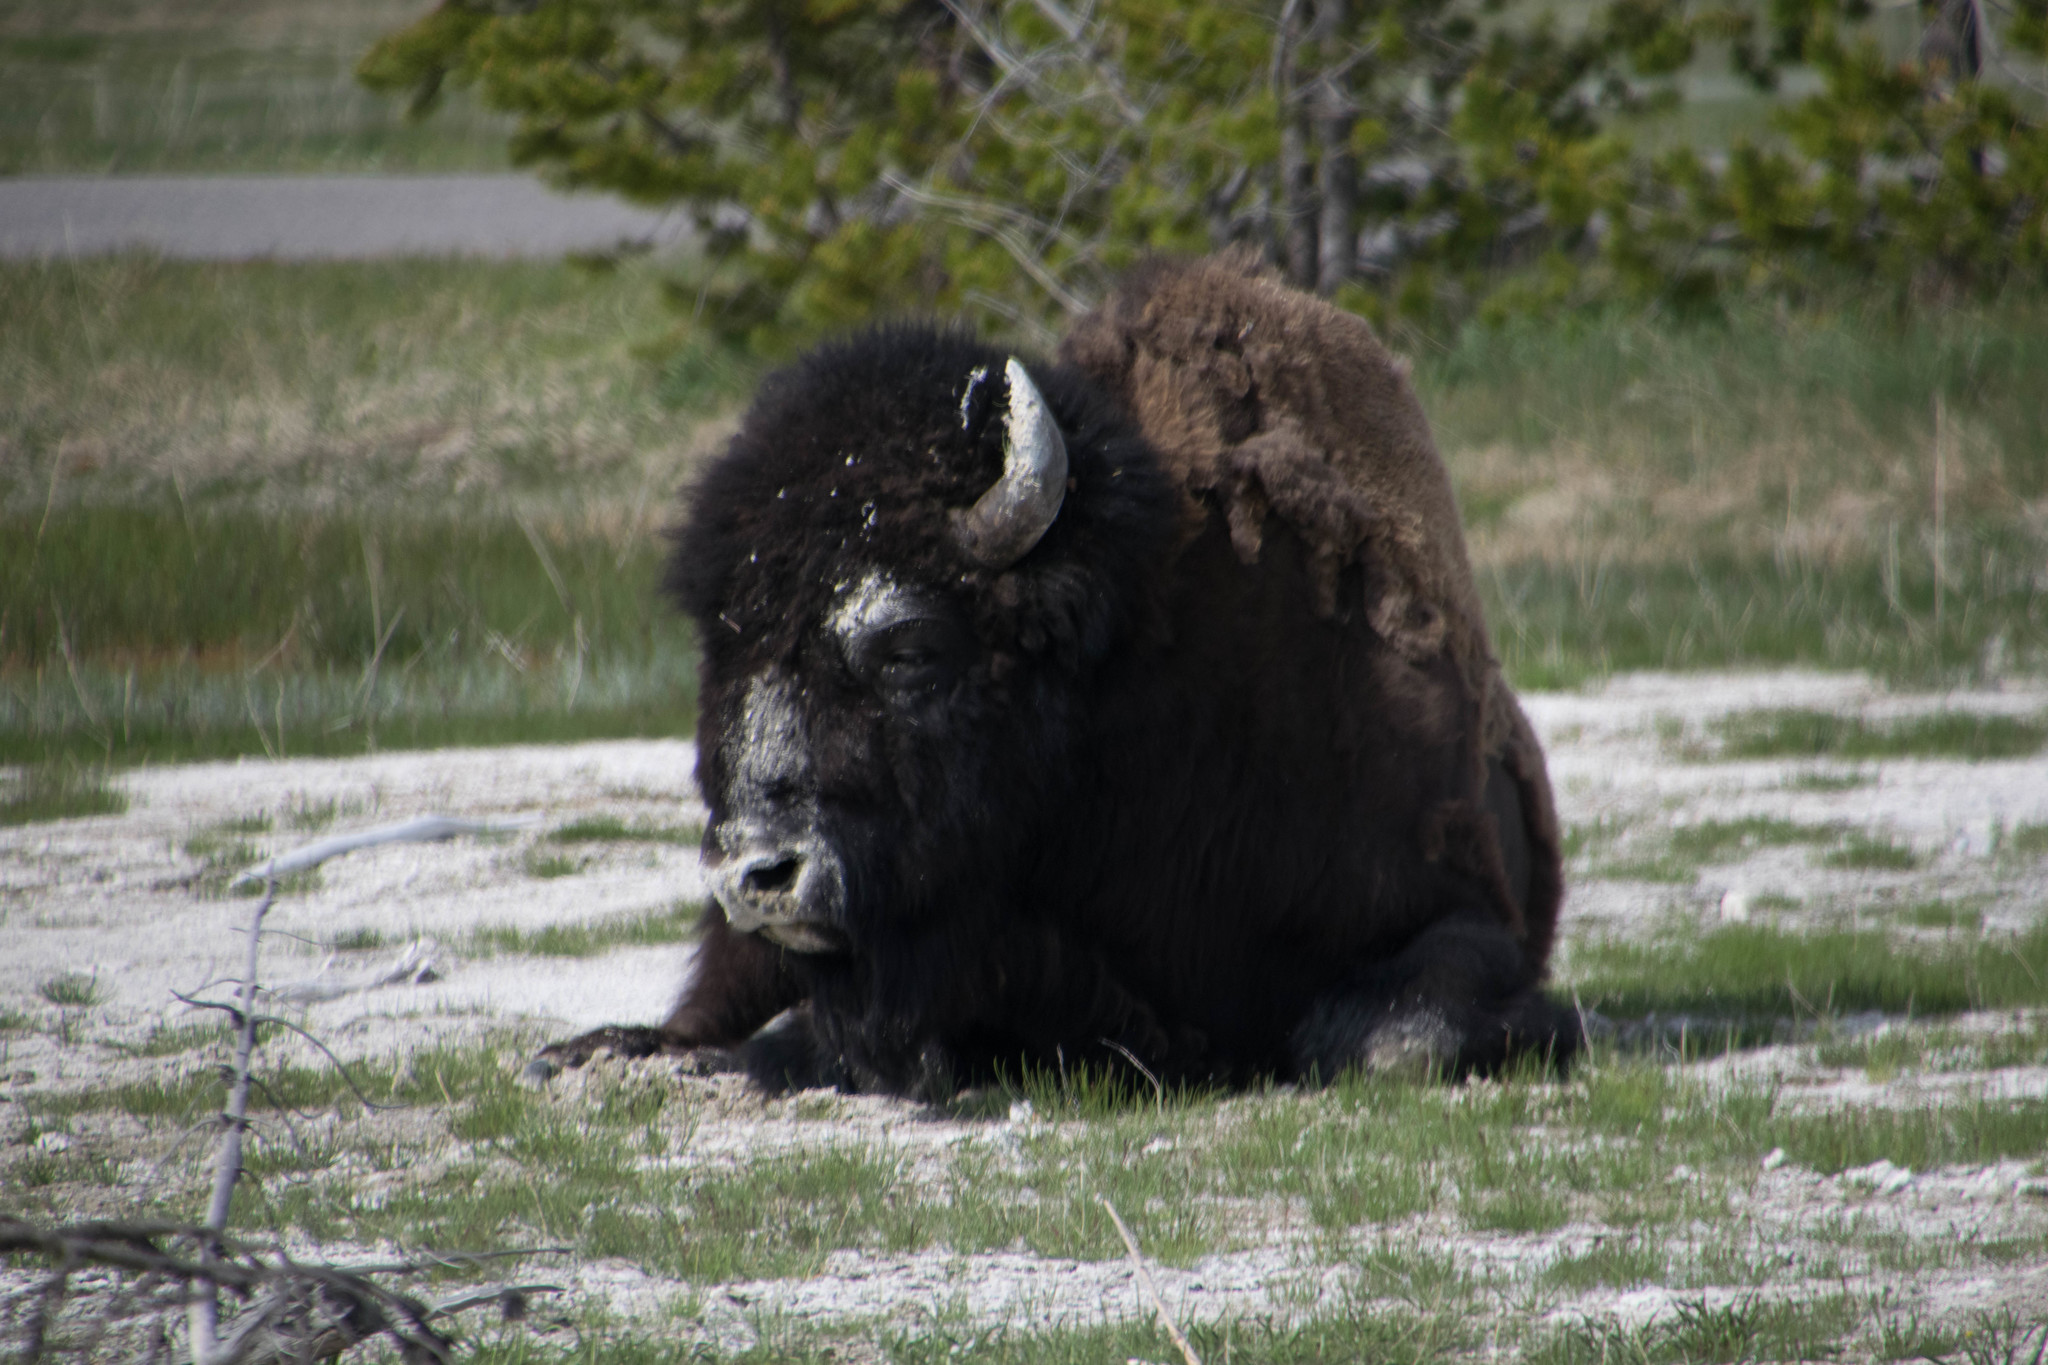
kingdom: Animalia
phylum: Chordata
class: Mammalia
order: Artiodactyla
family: Bovidae
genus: Bison
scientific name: Bison bison
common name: American bison
